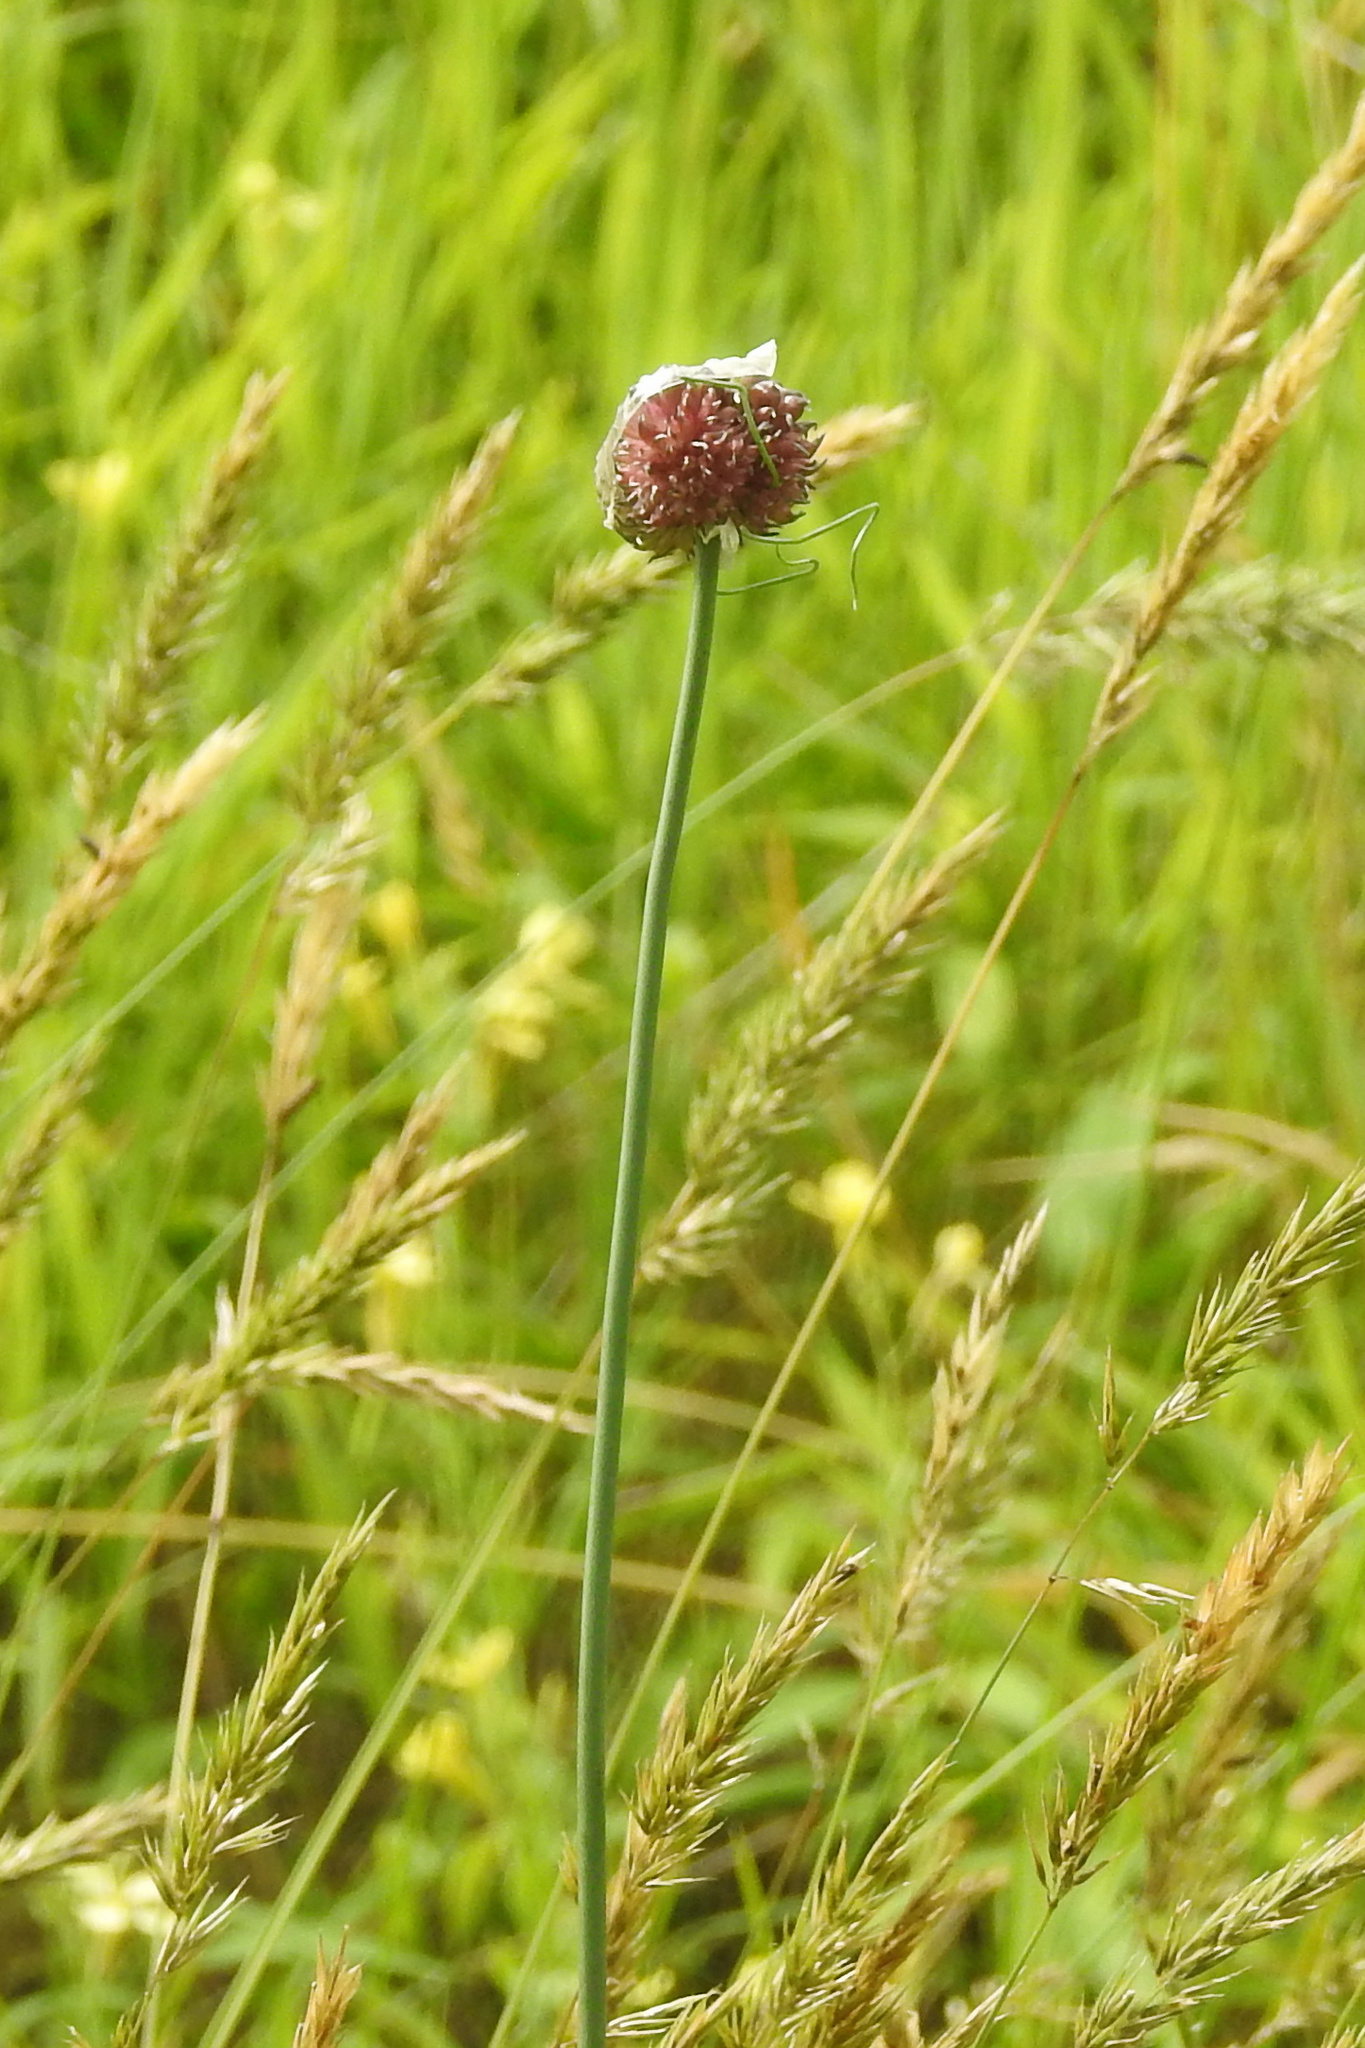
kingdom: Plantae
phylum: Tracheophyta
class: Liliopsida
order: Asparagales
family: Amaryllidaceae
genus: Allium
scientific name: Allium vineale
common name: Crow garlic
